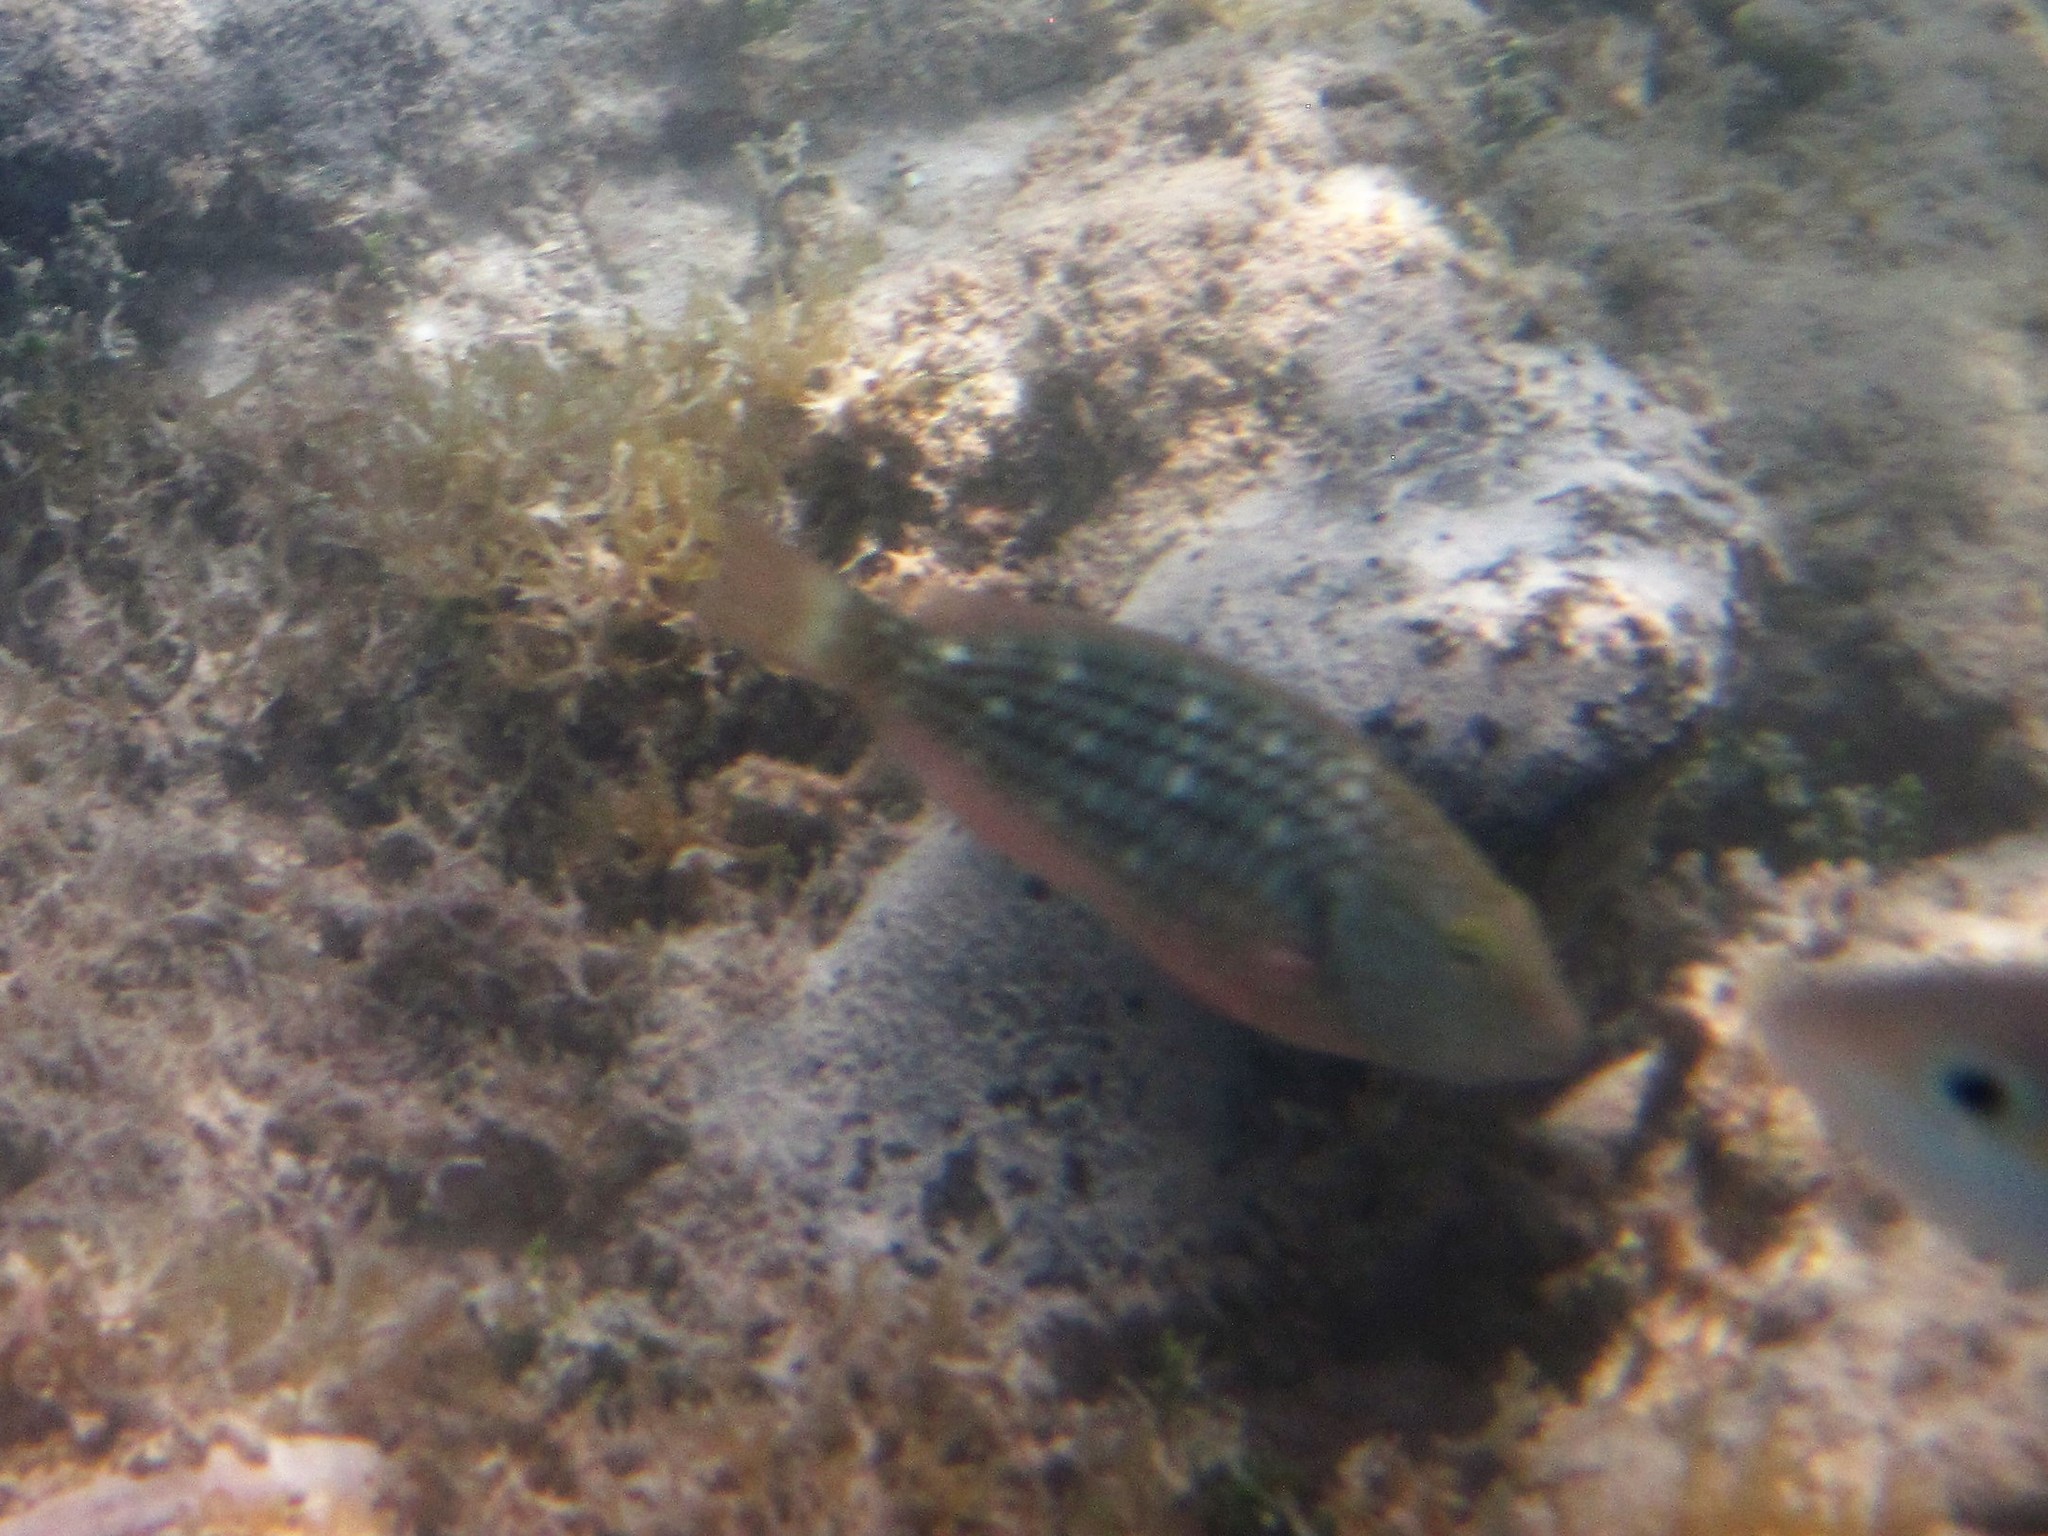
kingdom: Animalia
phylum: Chordata
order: Perciformes
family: Scaridae
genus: Sparisoma
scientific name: Sparisoma viride
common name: Stoplight parrotfish
